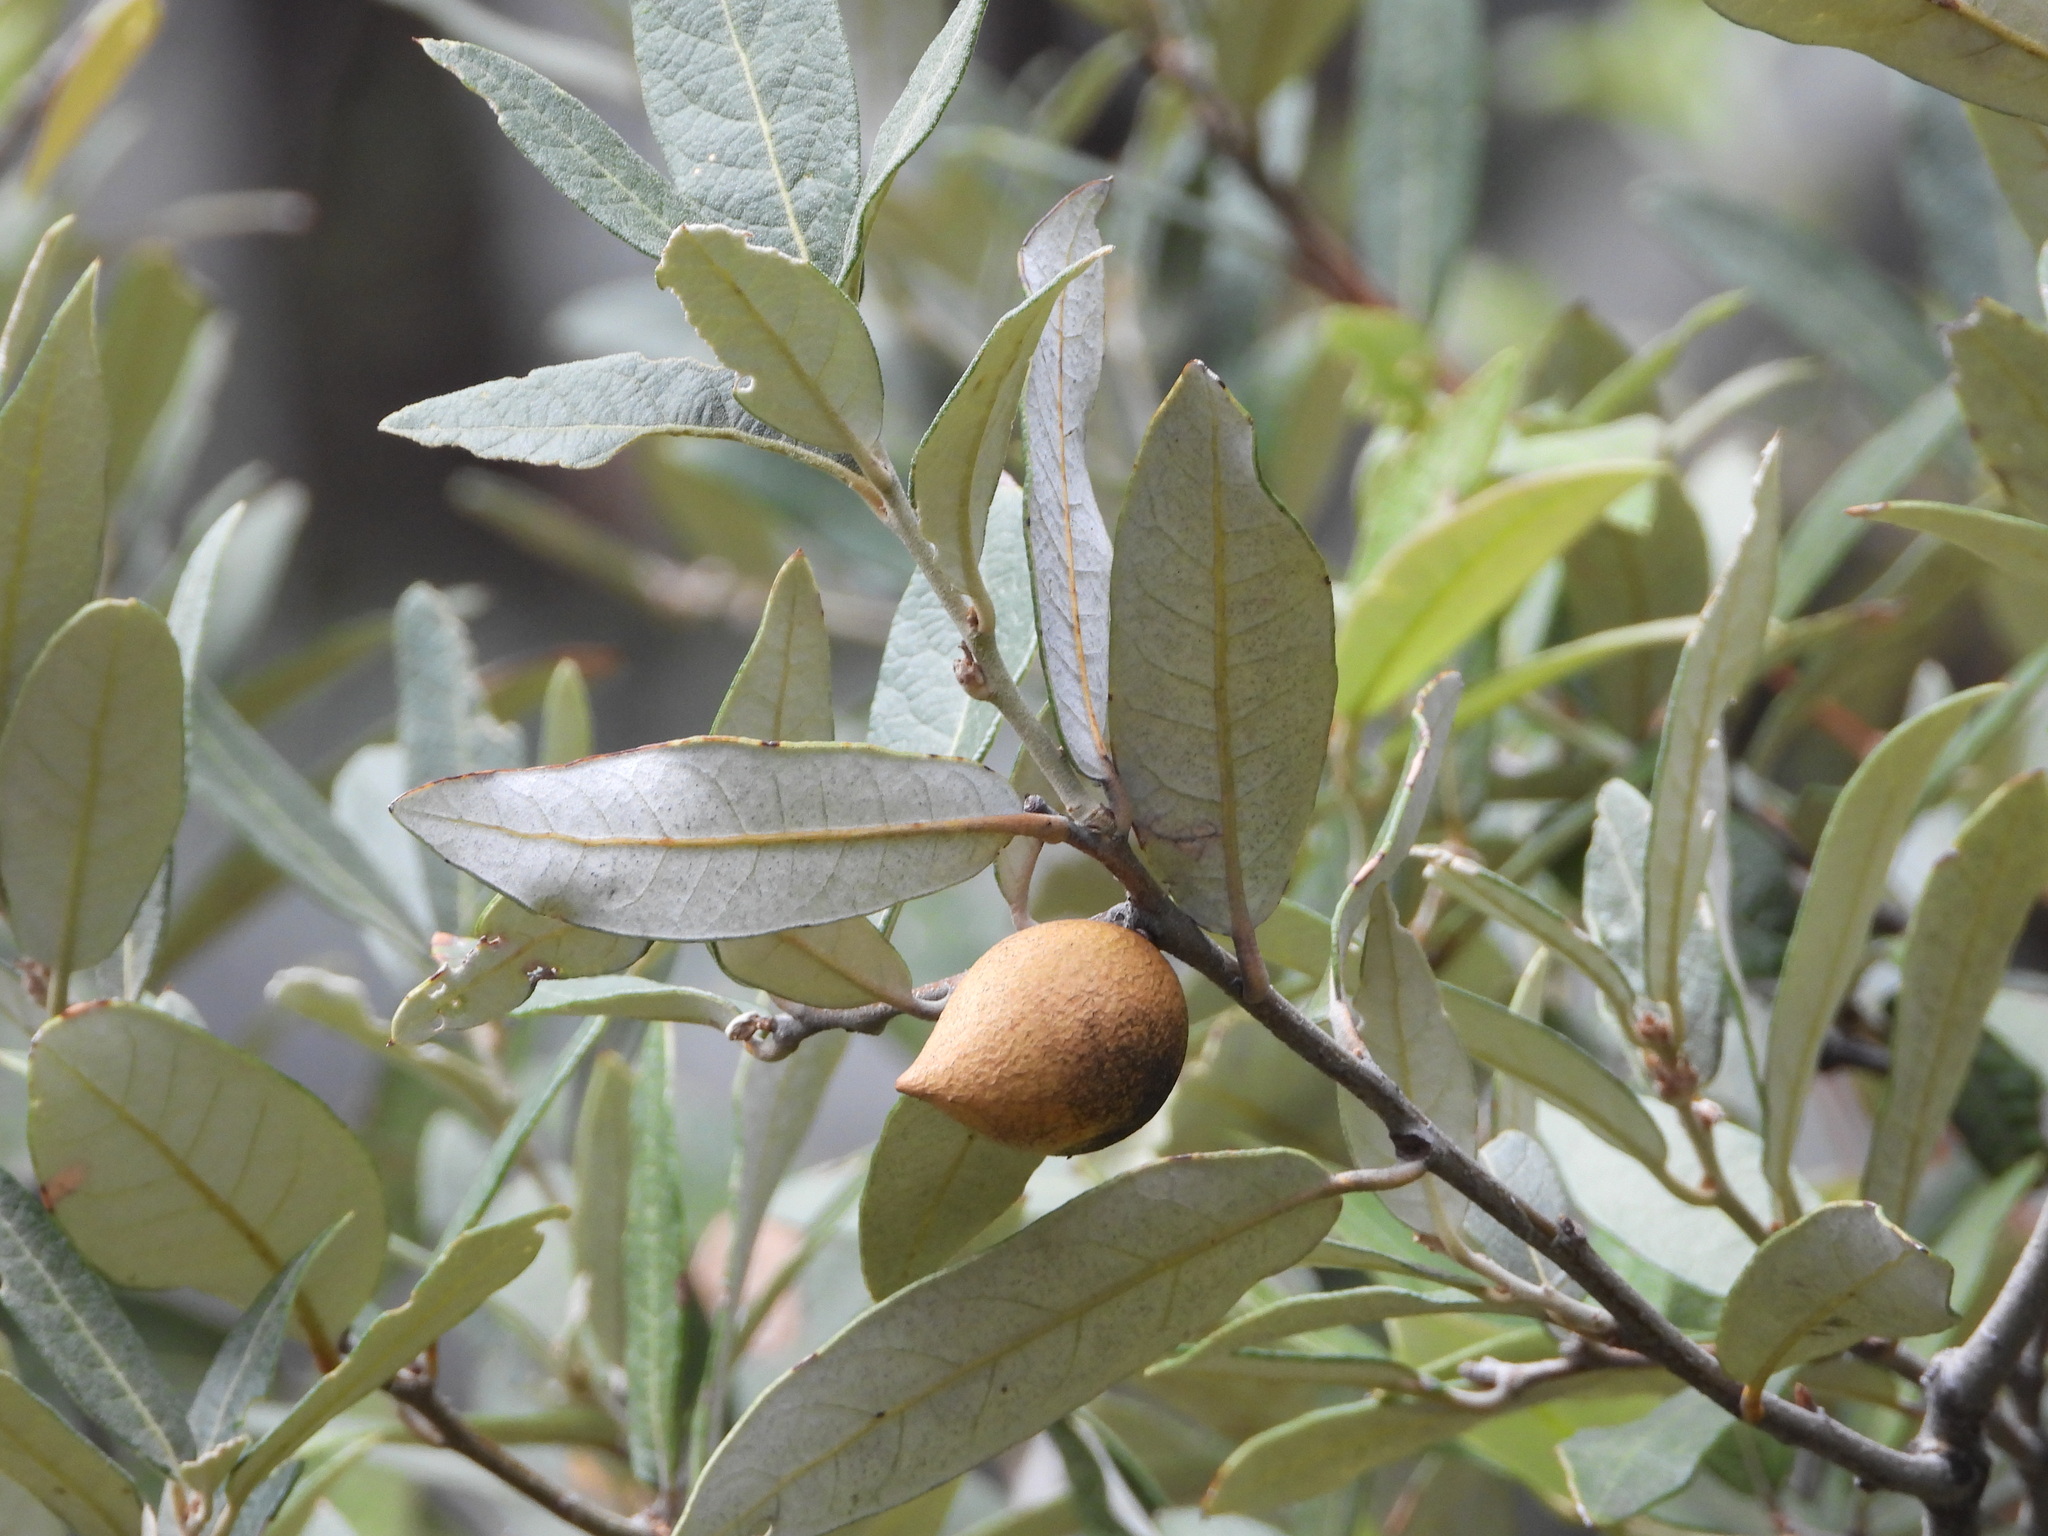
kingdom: Animalia
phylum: Arthropoda
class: Insecta
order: Hymenoptera
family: Cynipidae
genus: Amphibolips
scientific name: Amphibolips nassa
